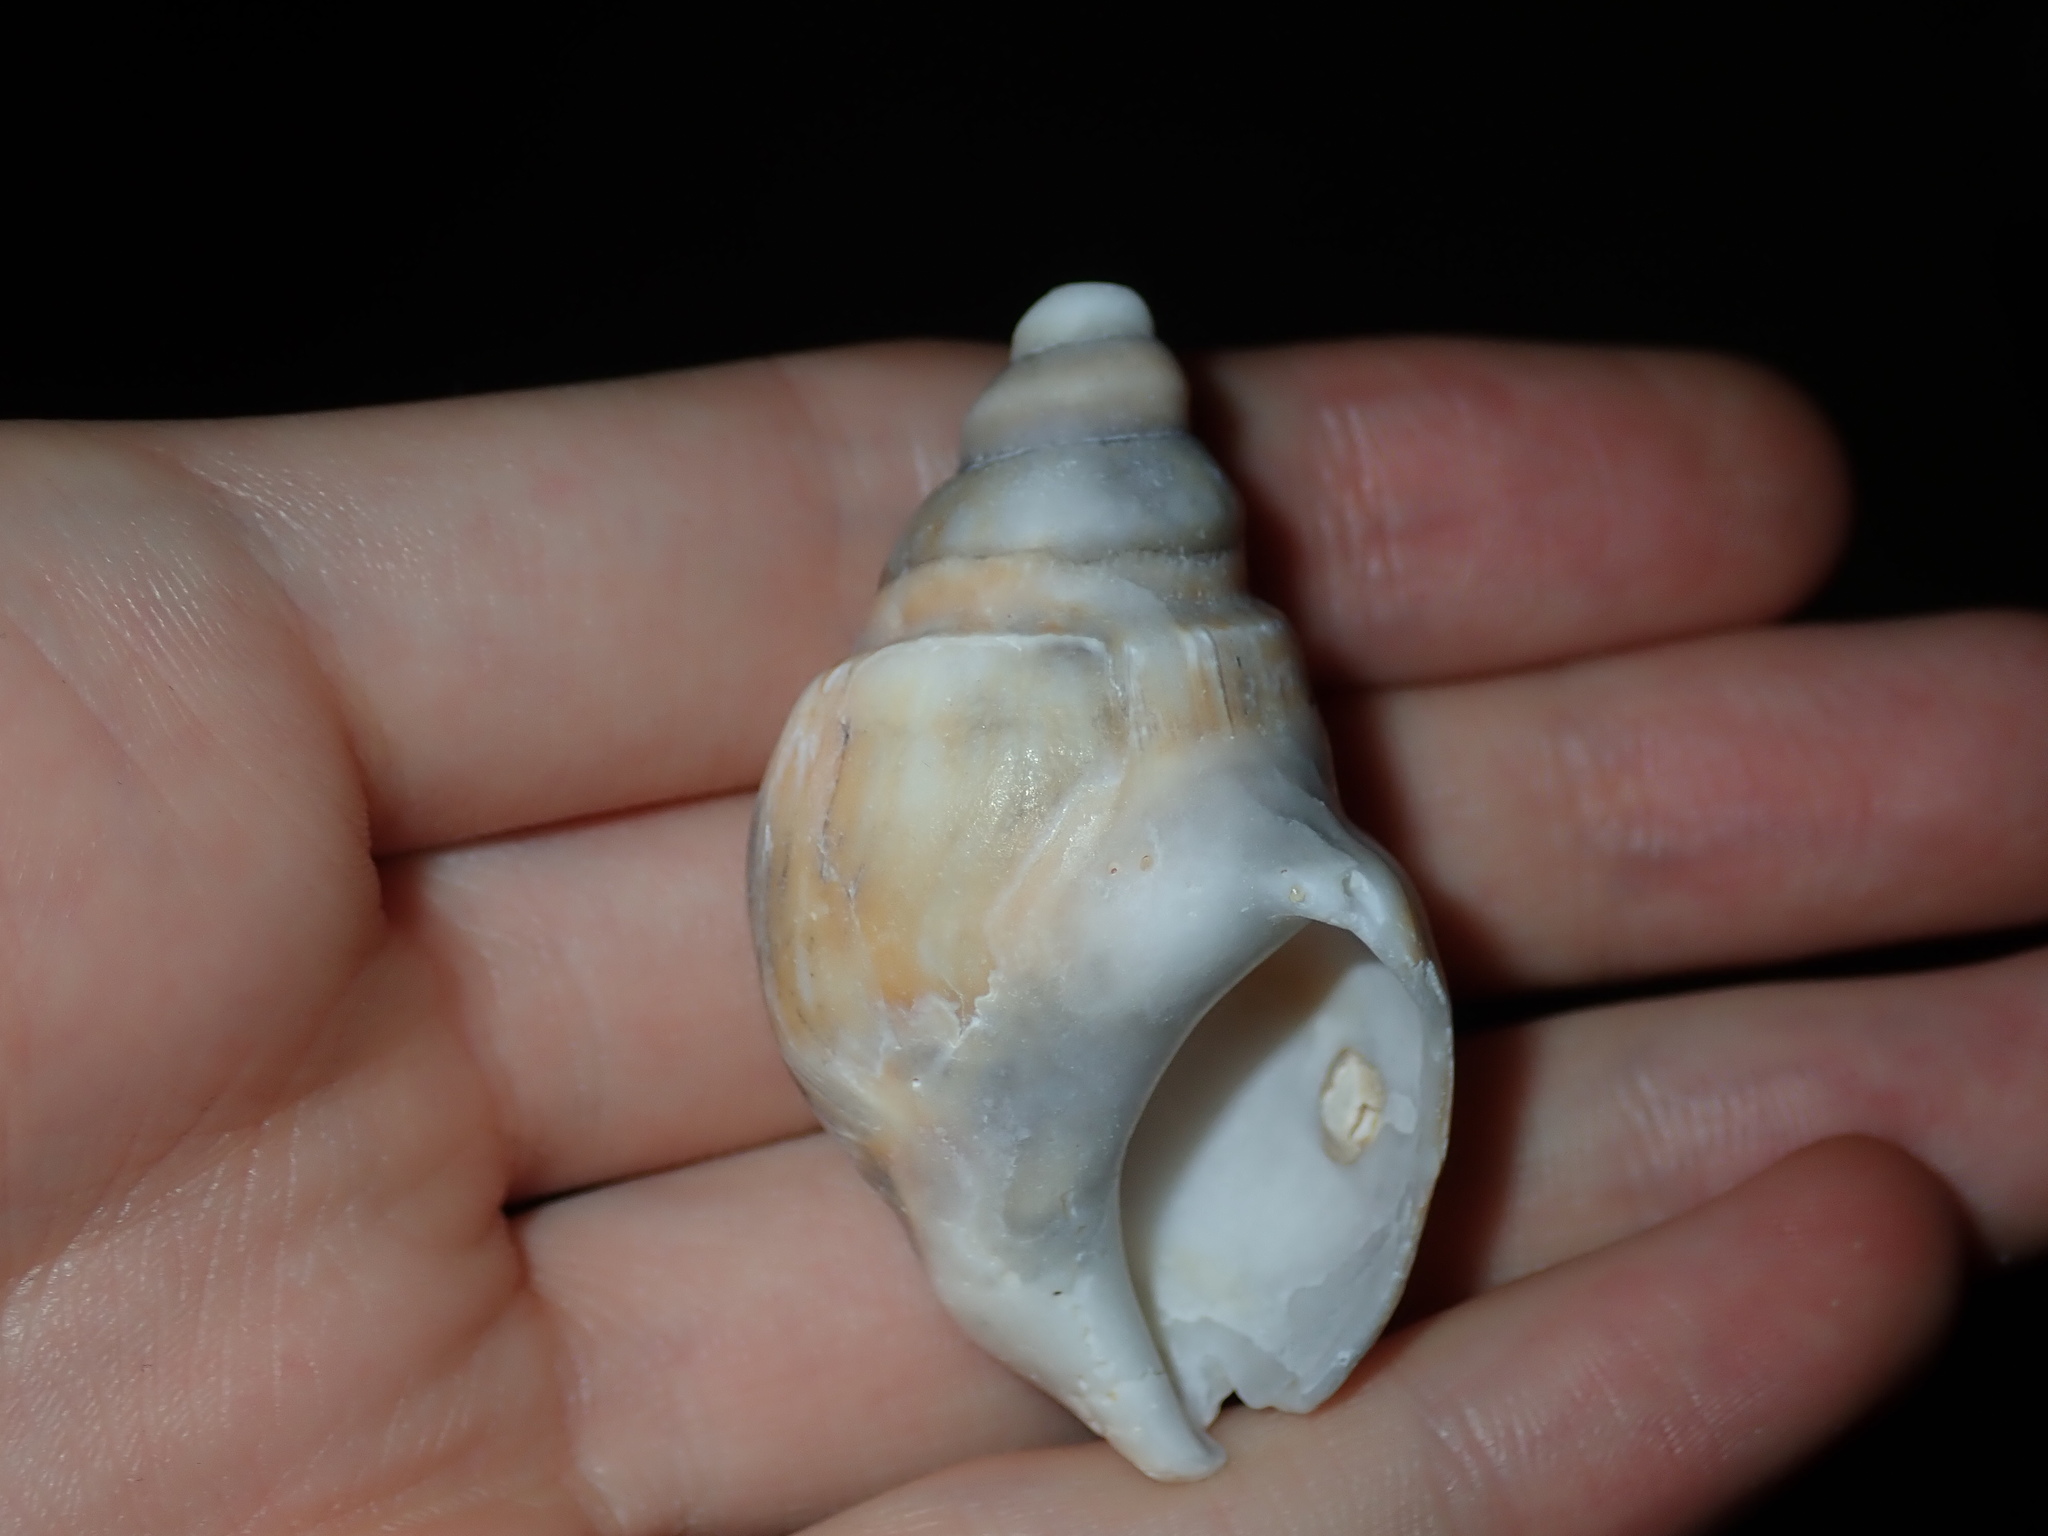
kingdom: Animalia
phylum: Mollusca
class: Gastropoda
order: Littorinimorpha
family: Struthiolariidae
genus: Tylospira
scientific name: Tylospira scutulata
